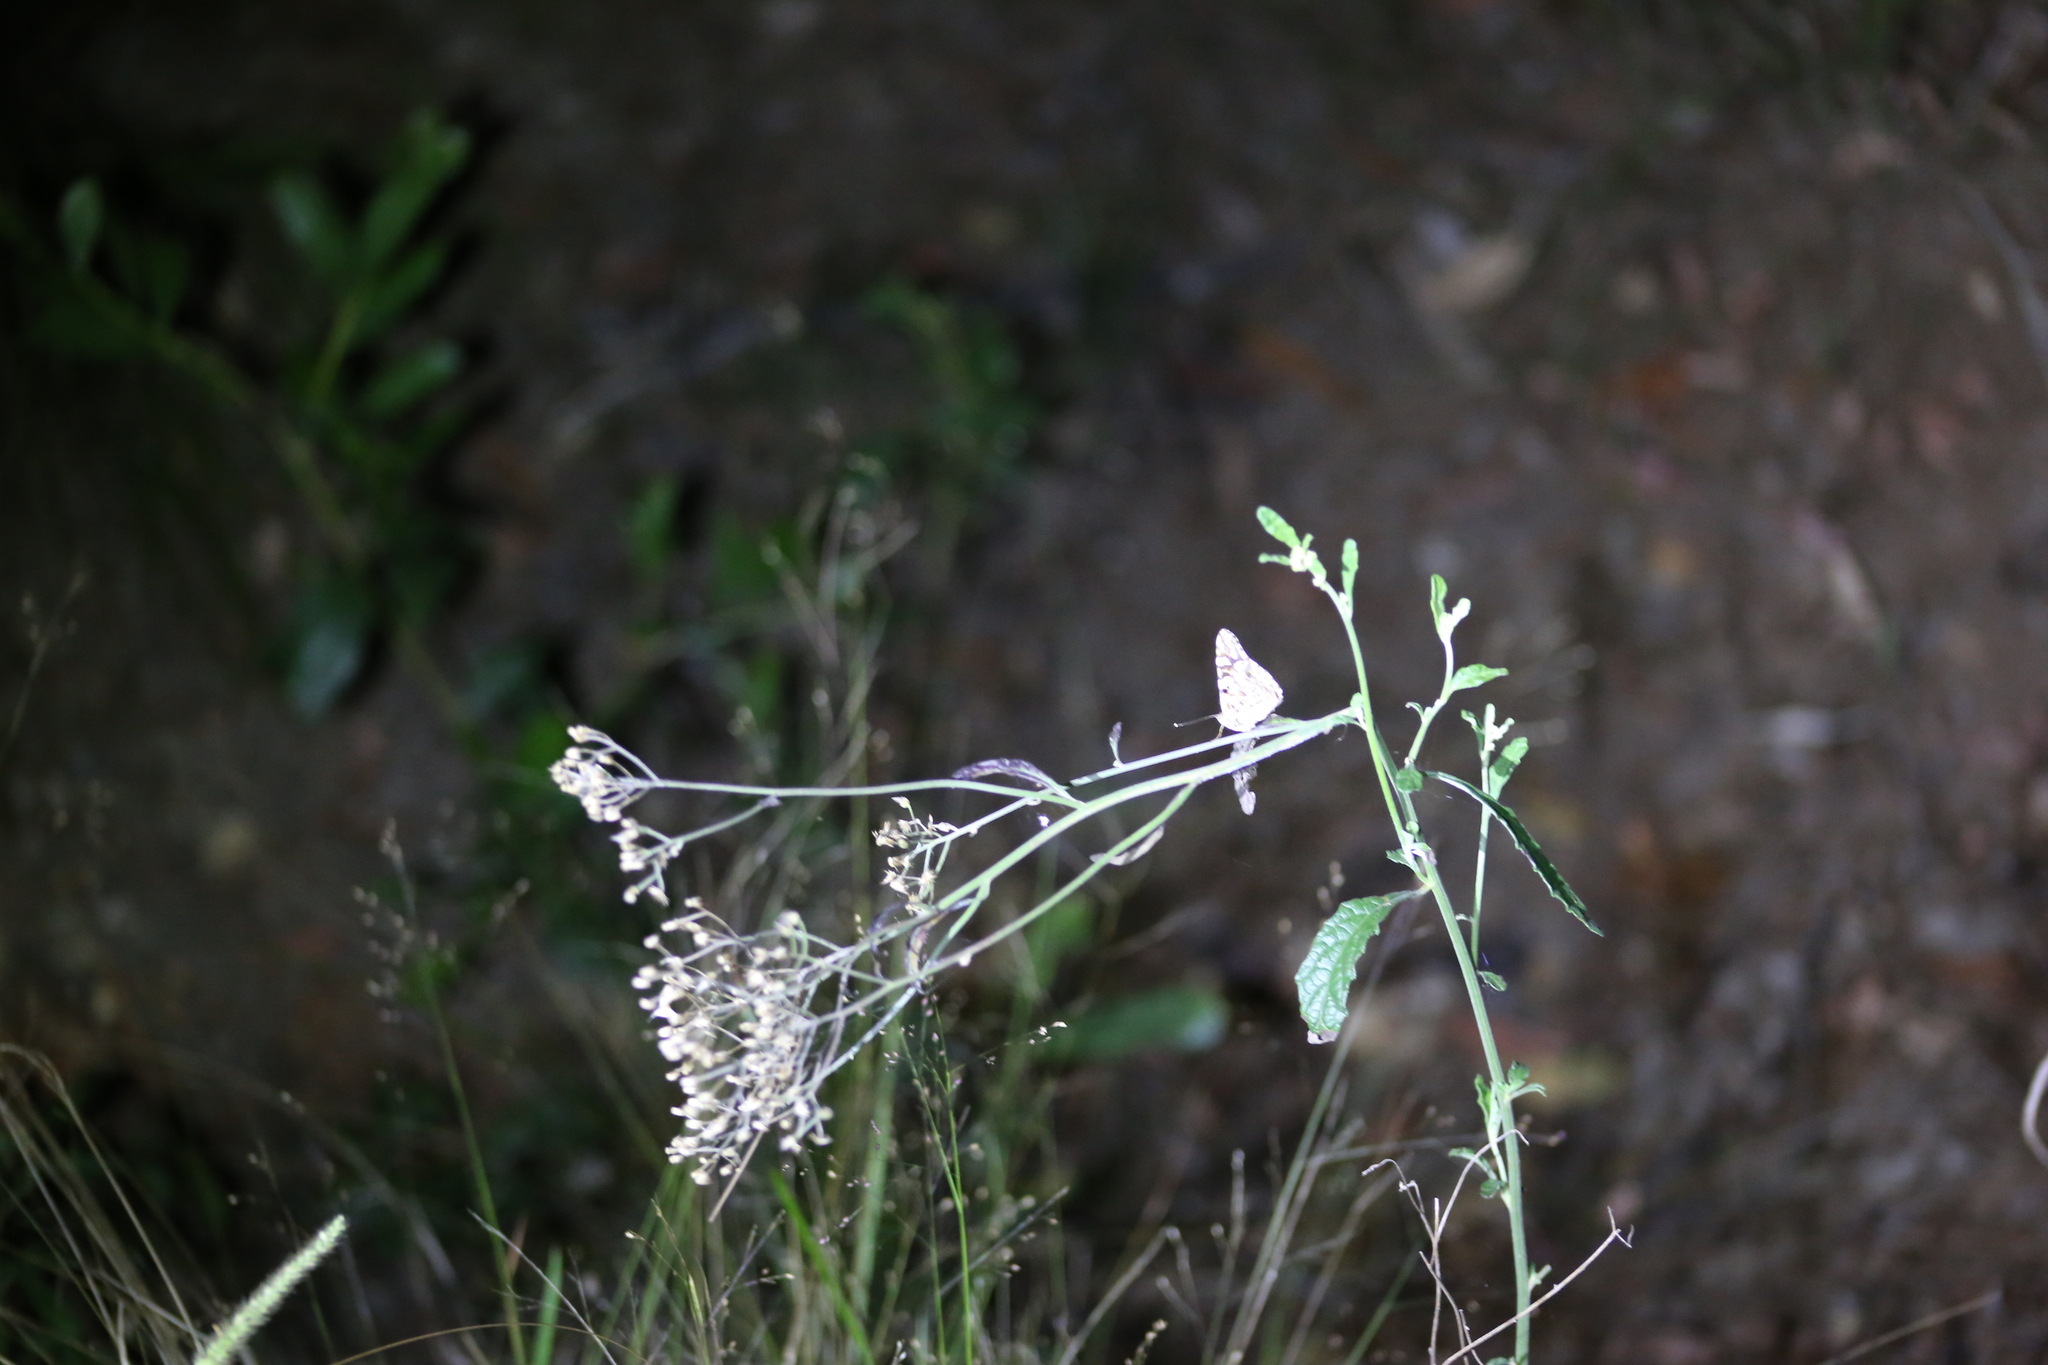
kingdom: Plantae
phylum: Tracheophyta
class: Magnoliopsida
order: Asterales
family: Asteraceae
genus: Cyanthillium
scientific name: Cyanthillium cinereum
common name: Little ironweed
